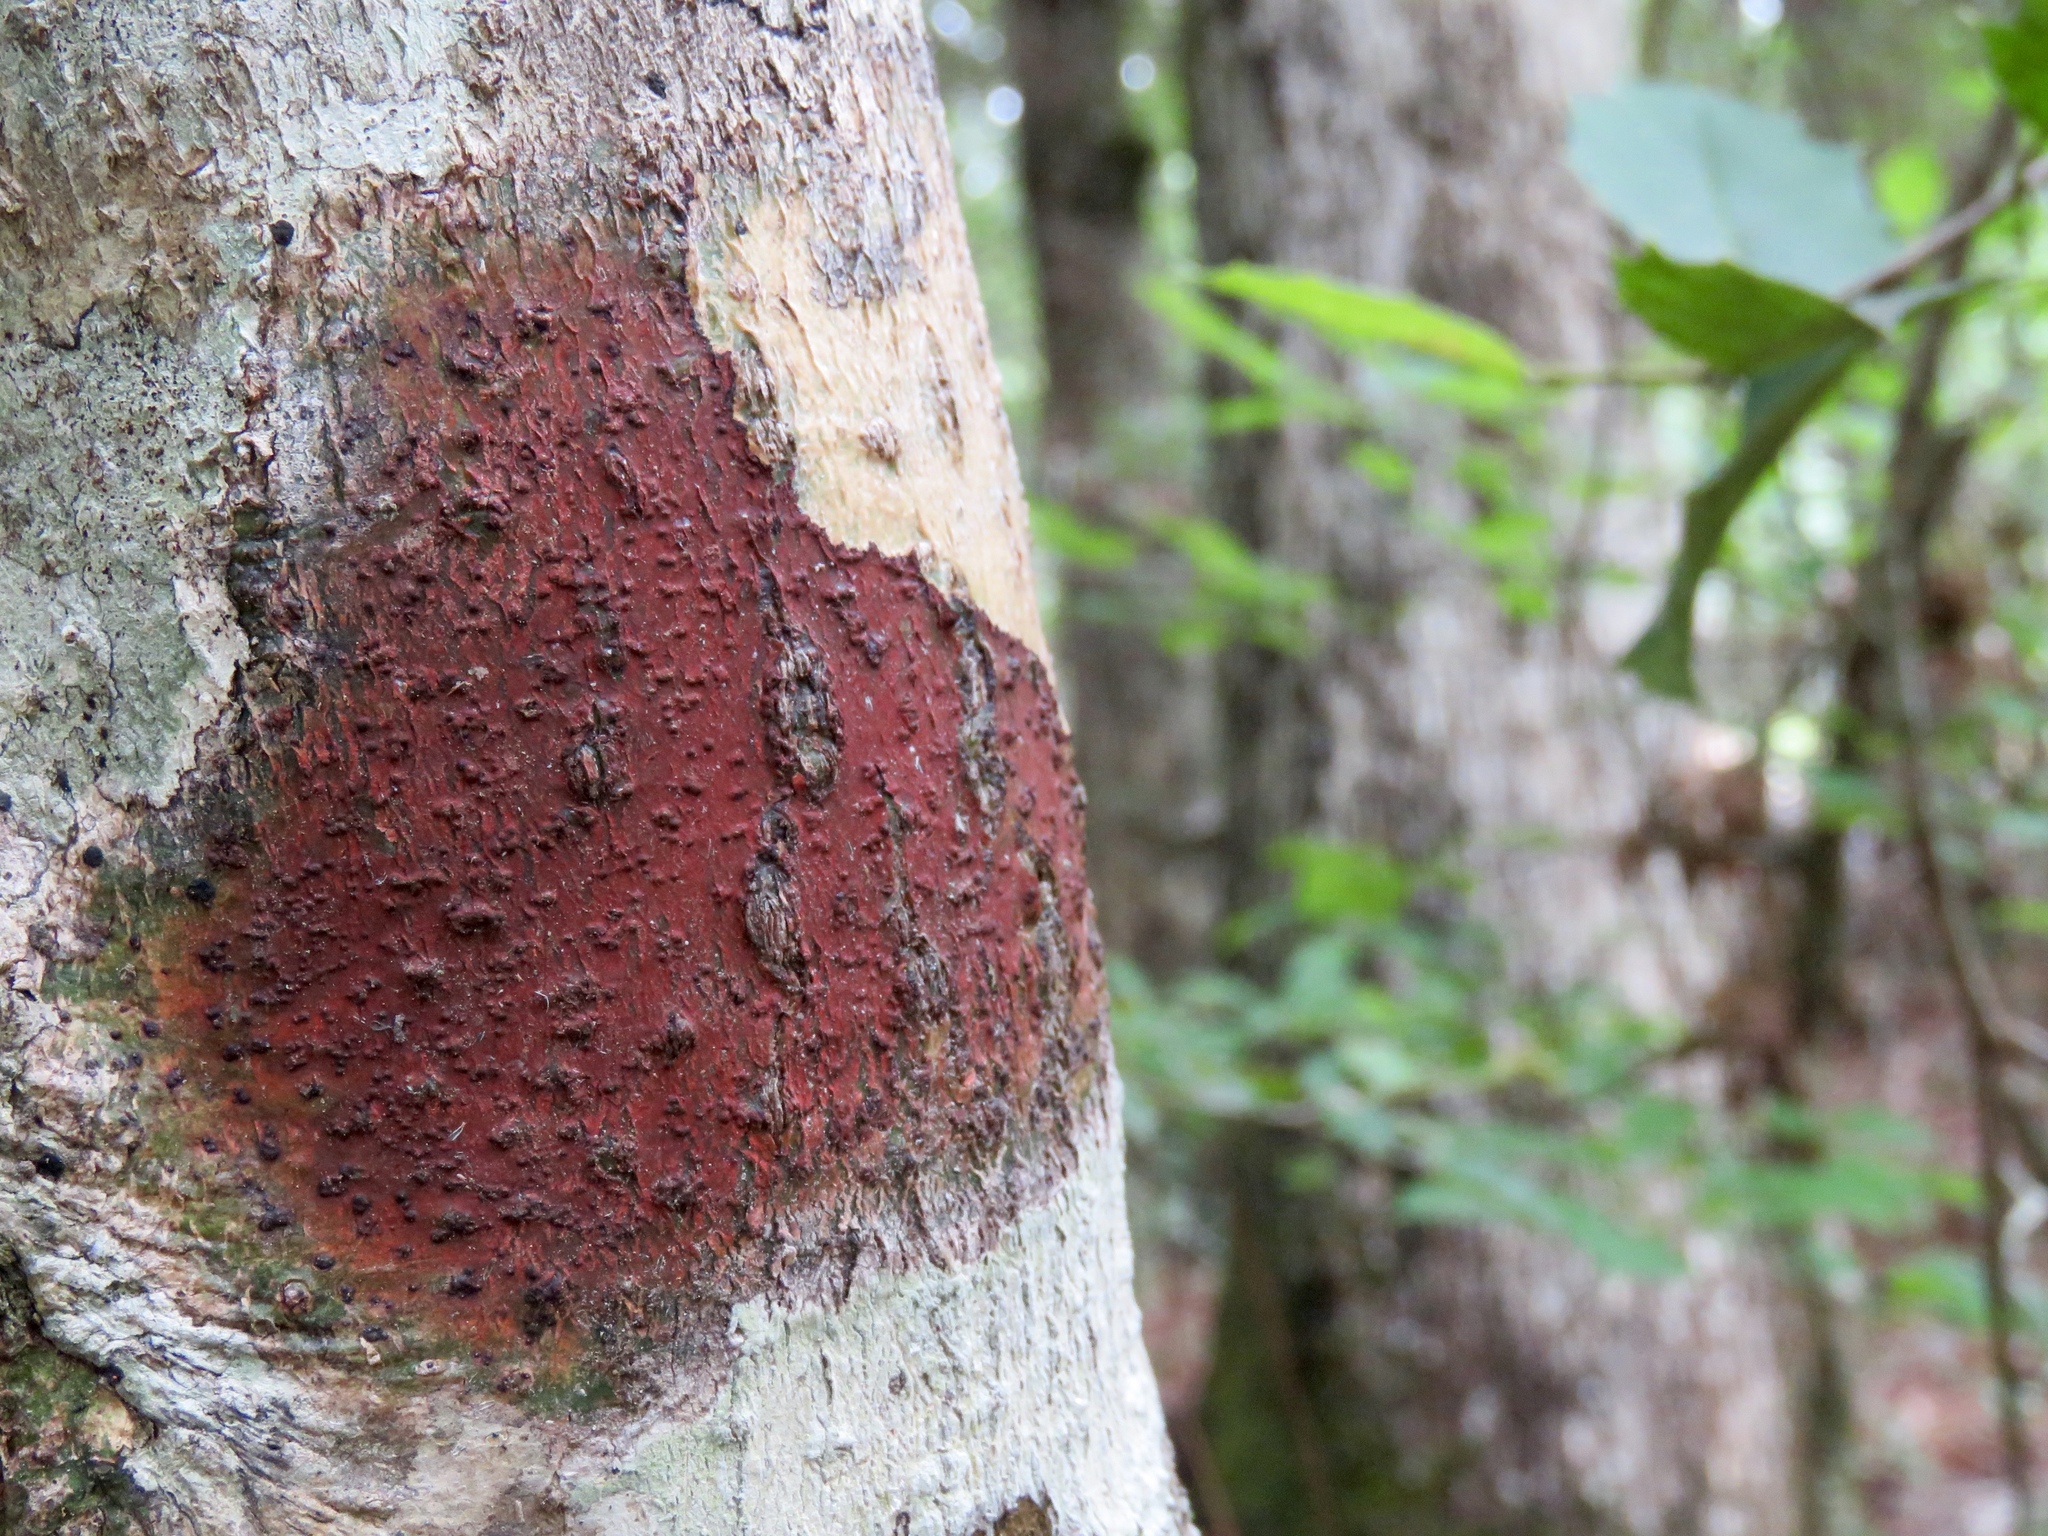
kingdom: Fungi
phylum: Ascomycota
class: Eurotiomycetes
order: Pyrenulales
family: Pyrenulaceae
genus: Pyrenula
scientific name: Pyrenula cruenta
